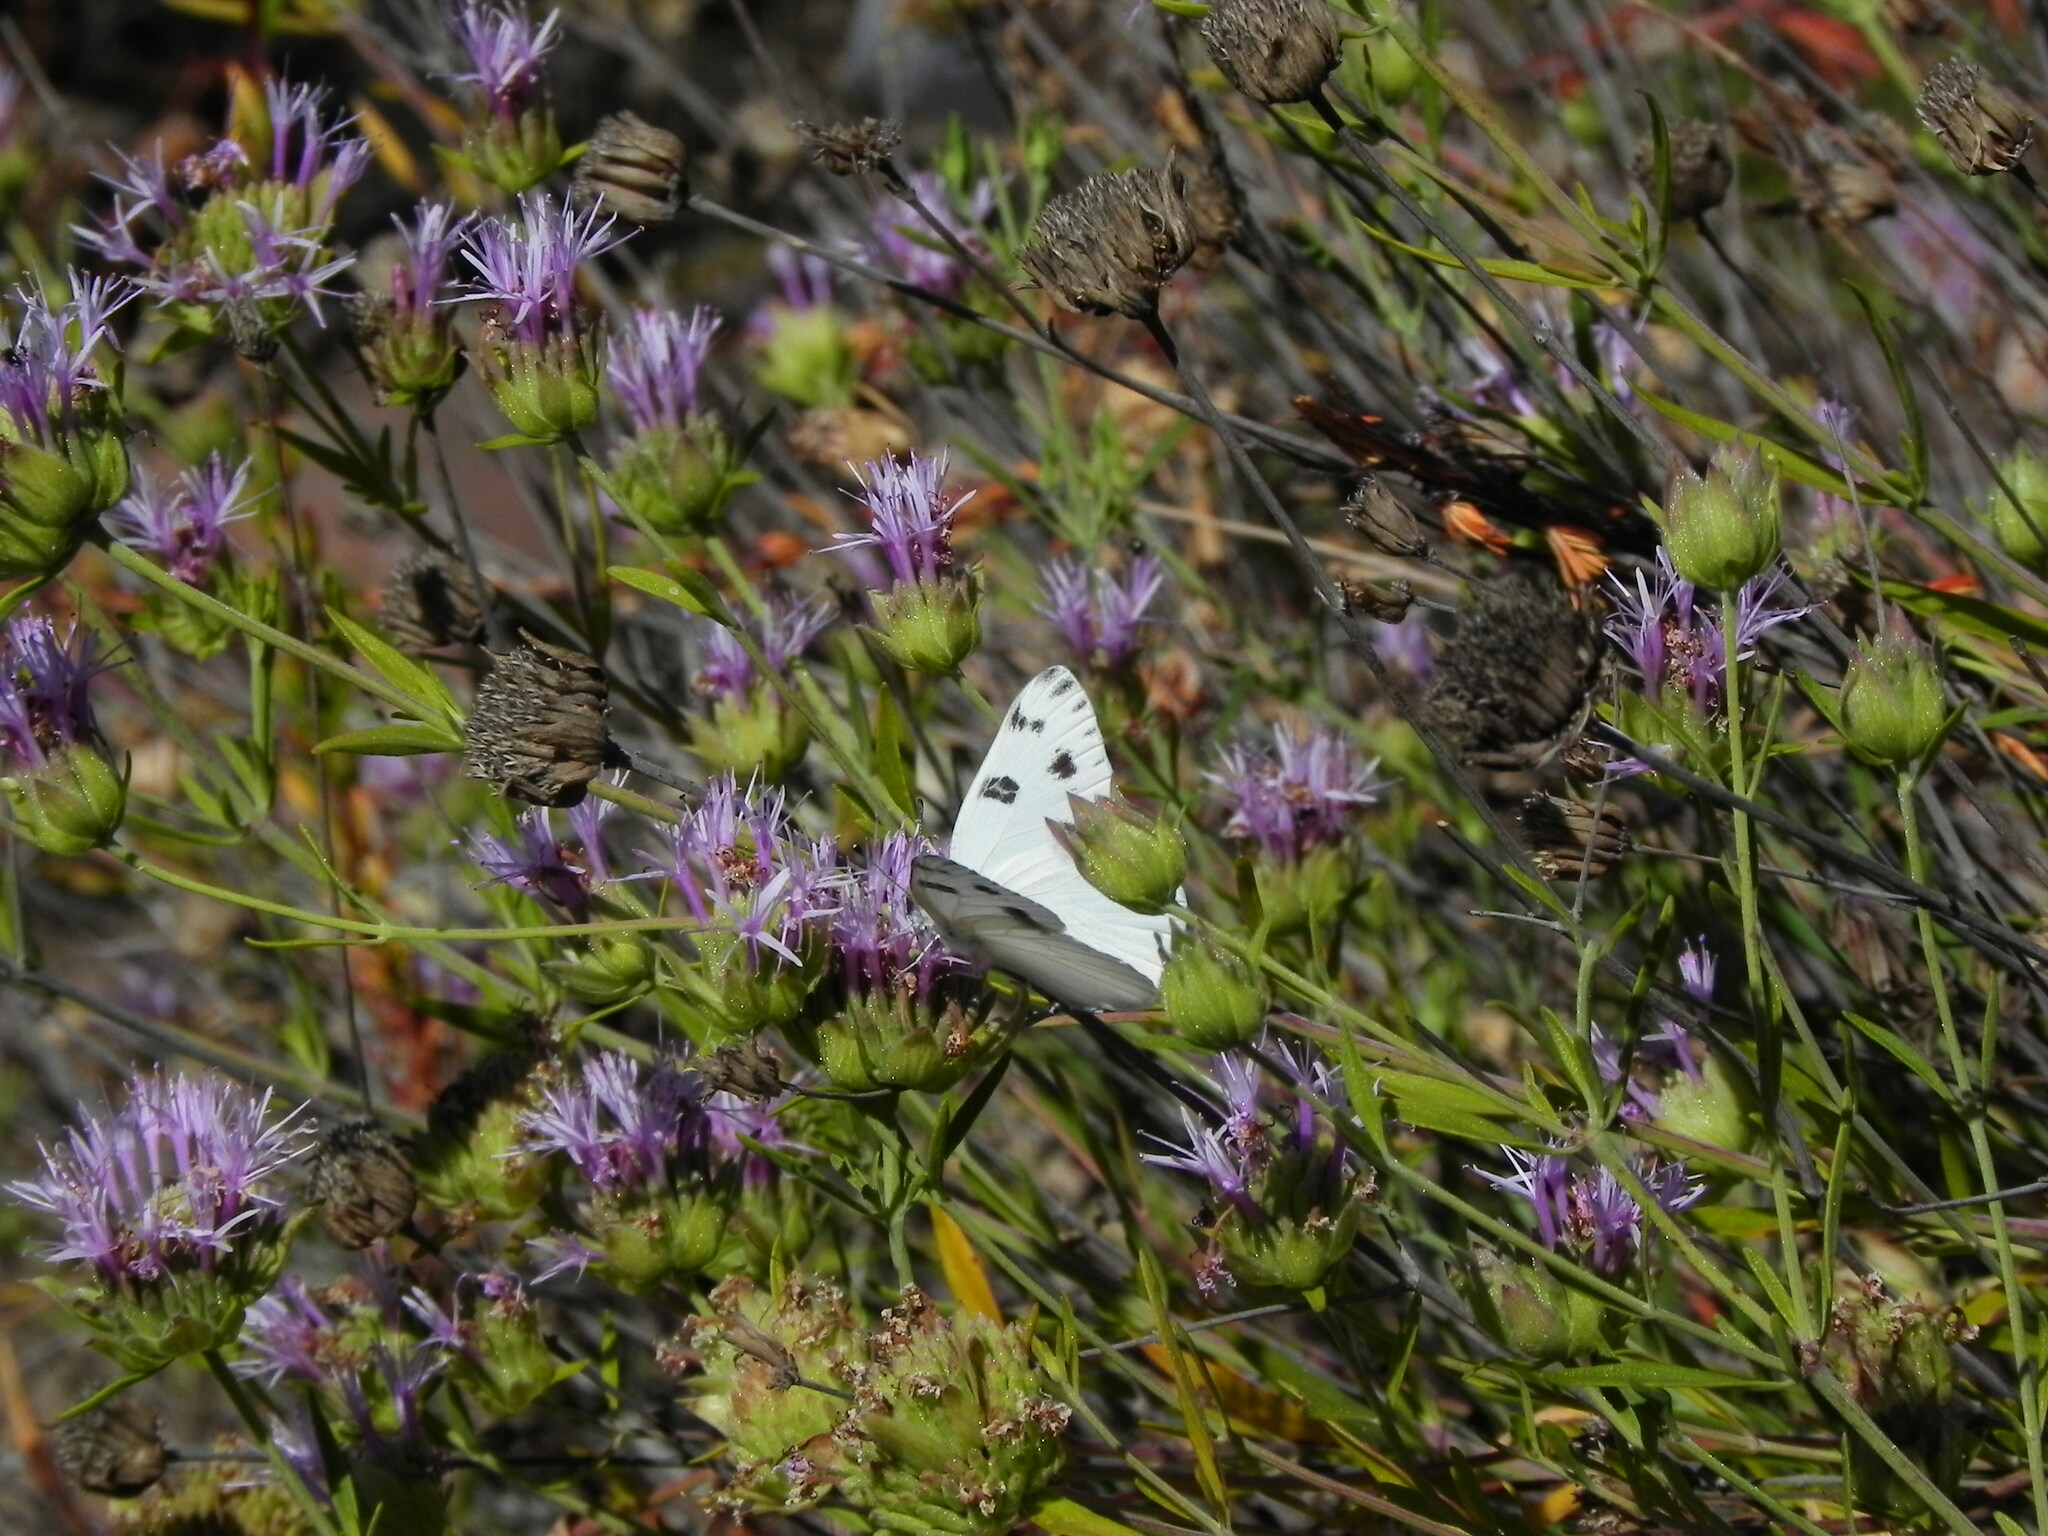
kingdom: Animalia
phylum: Arthropoda
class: Insecta
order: Lepidoptera
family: Pieridae
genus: Pontia
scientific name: Pontia protodice
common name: Checkered white
